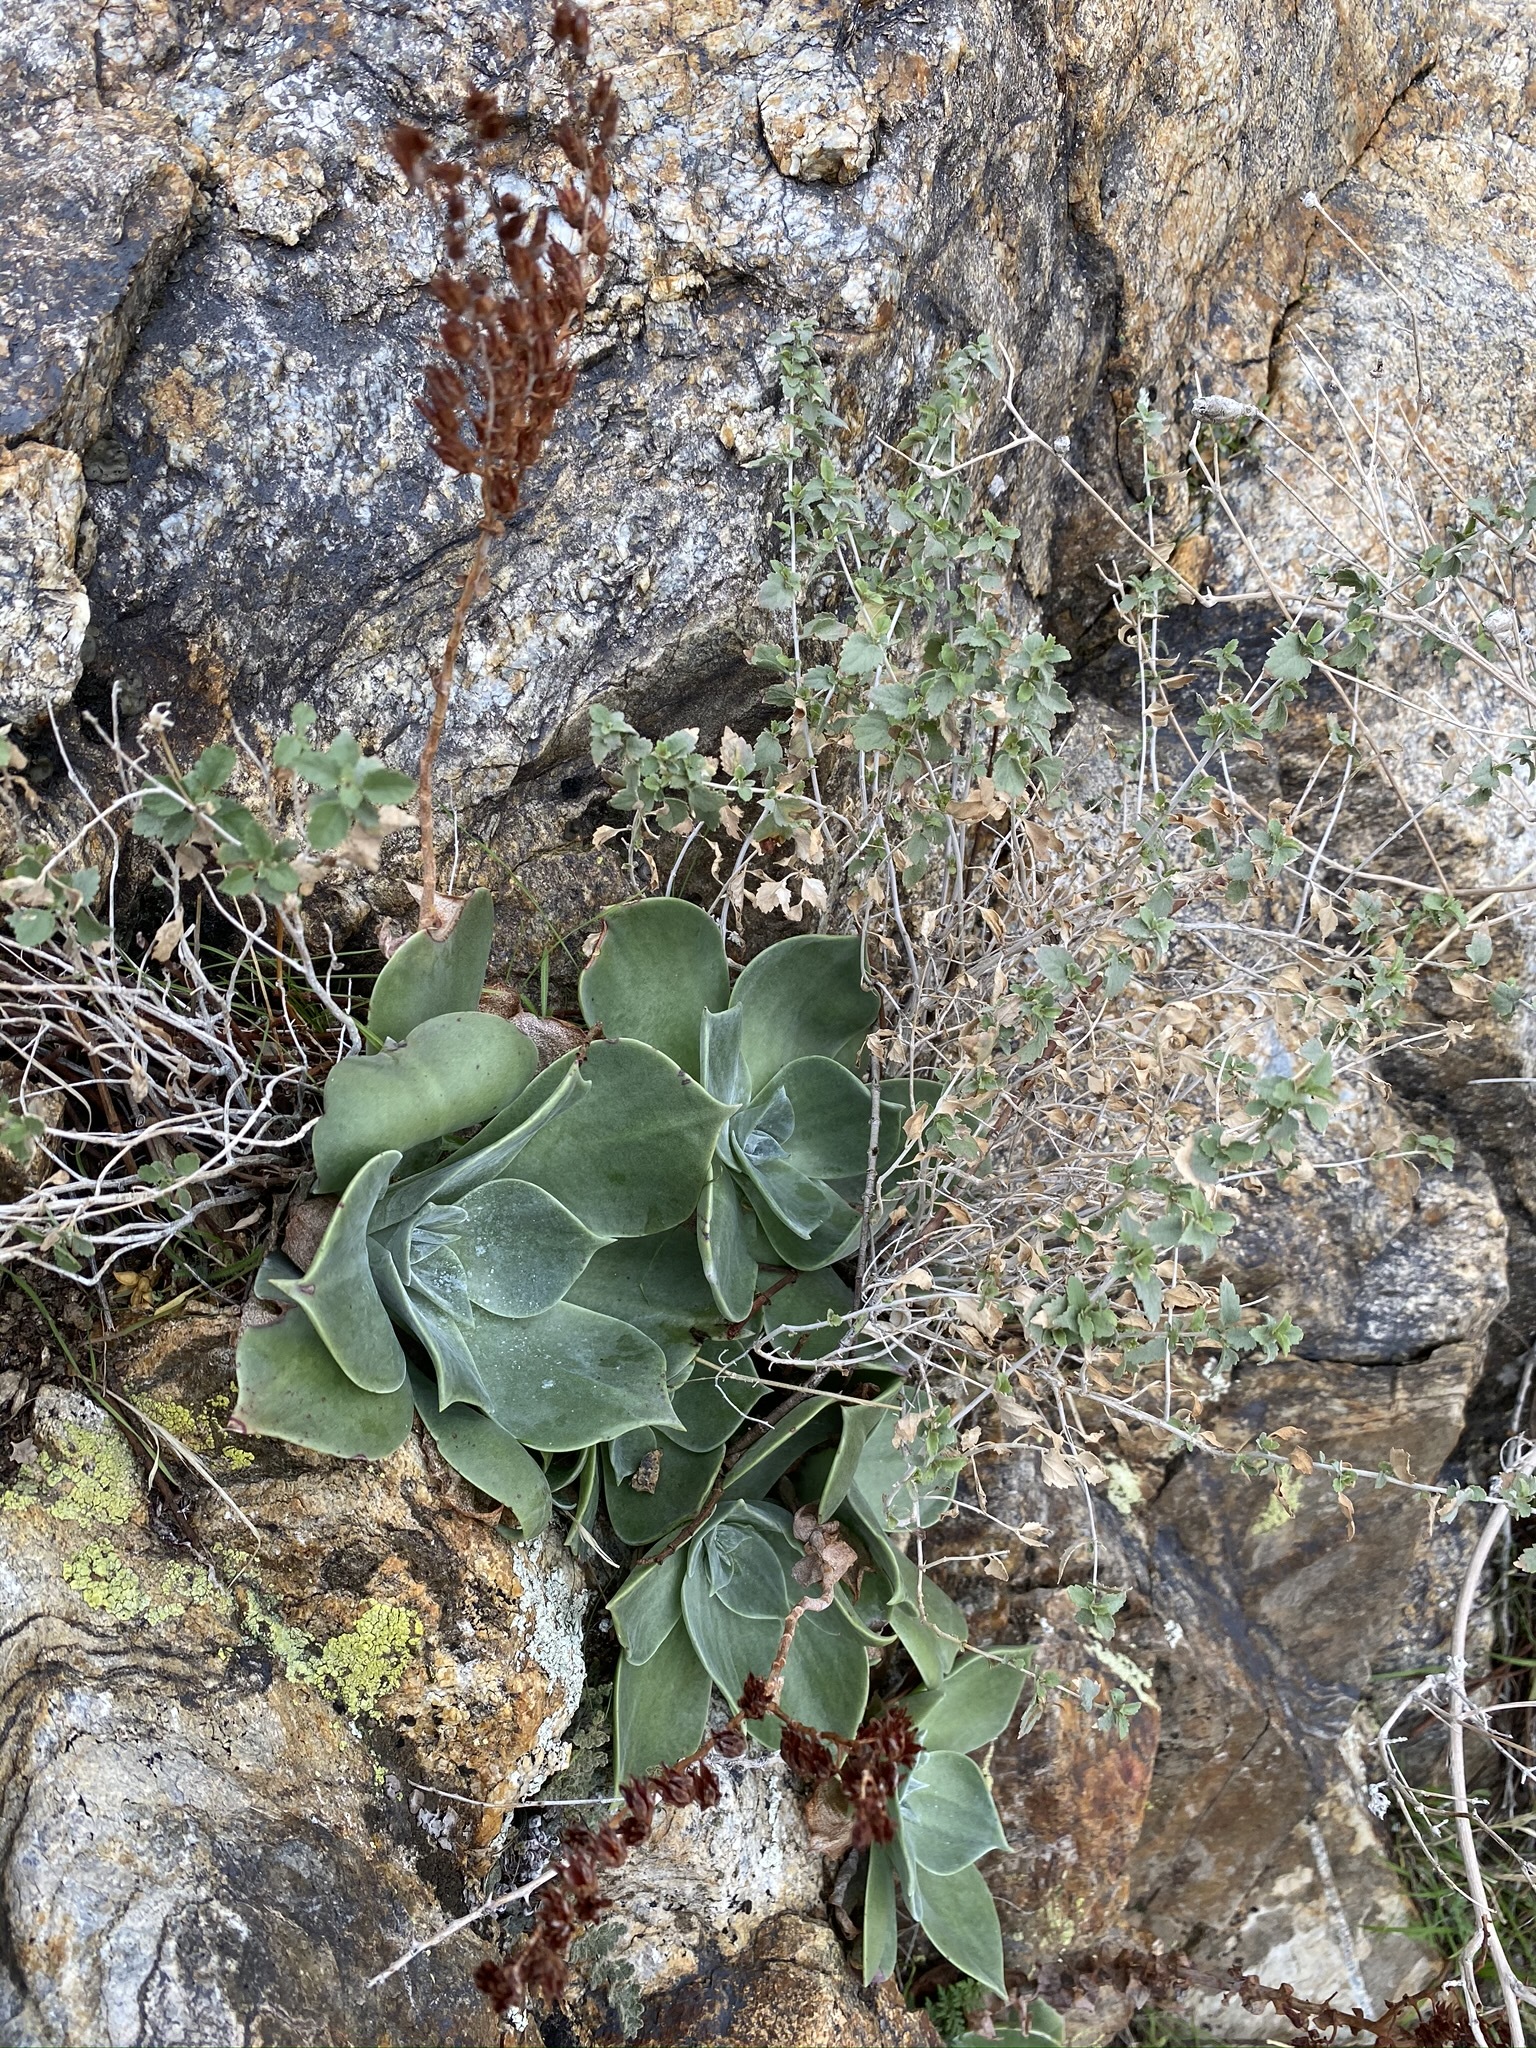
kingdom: Plantae
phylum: Tracheophyta
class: Magnoliopsida
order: Saxifragales
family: Crassulaceae
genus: Dudleya
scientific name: Dudleya arizonica
